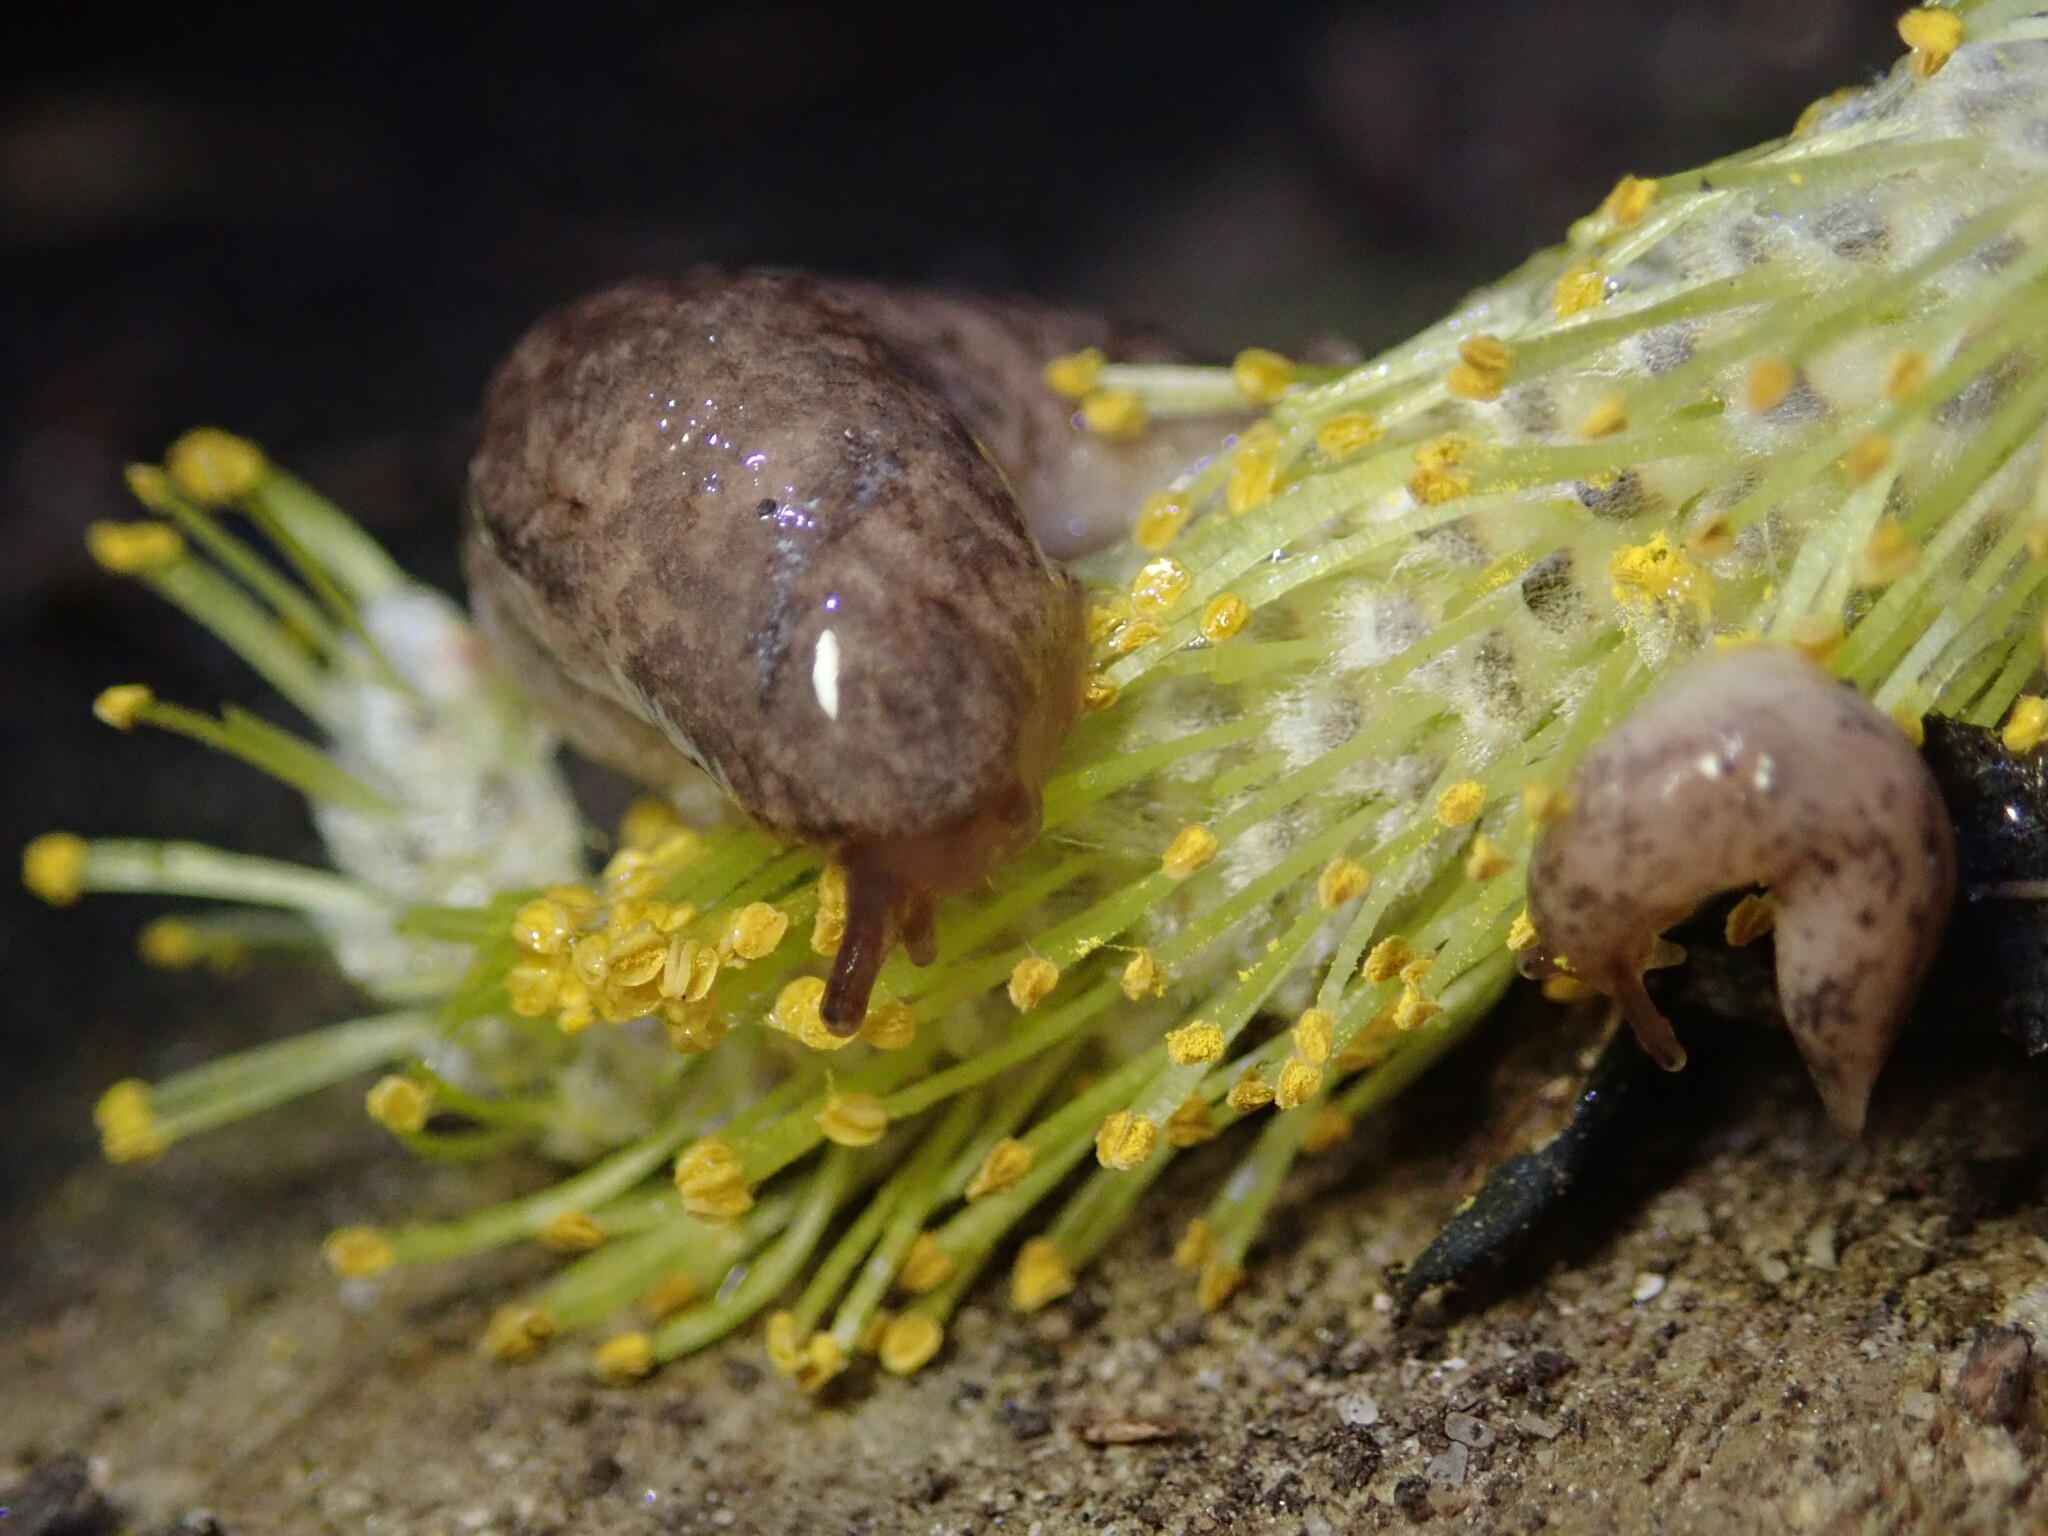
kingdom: Animalia
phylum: Mollusca
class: Gastropoda
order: Stylommatophora
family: Agriolimacidae
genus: Deroceras
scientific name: Deroceras reticulatum
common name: Gray field slug
